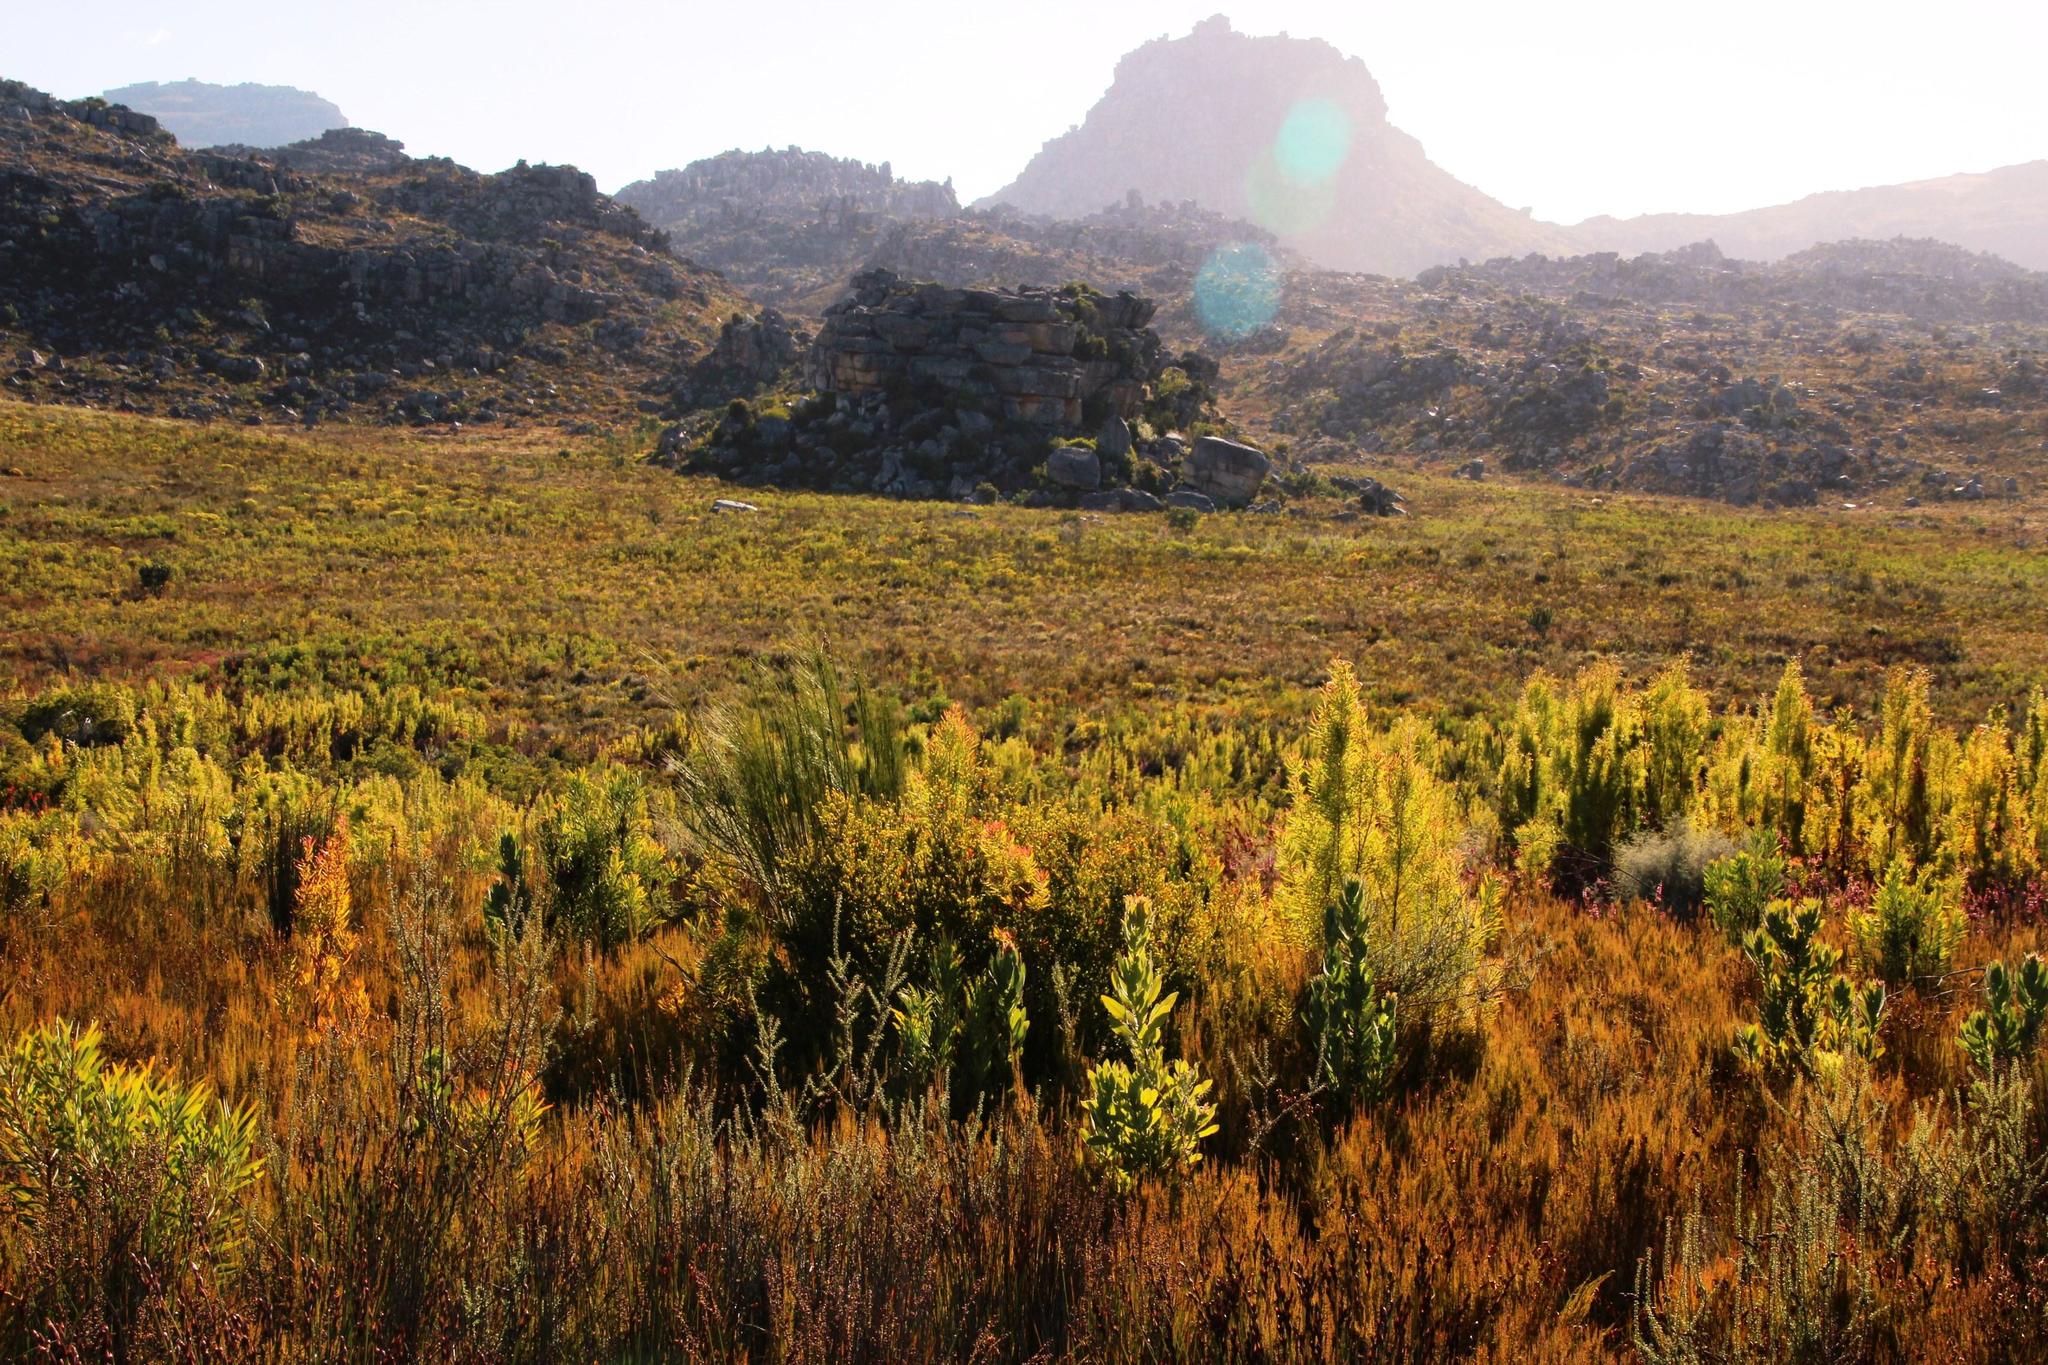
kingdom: Plantae
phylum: Tracheophyta
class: Magnoliopsida
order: Proteales
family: Proteaceae
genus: Leucadendron
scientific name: Leucadendron salicifolium
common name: Common stream conebush
